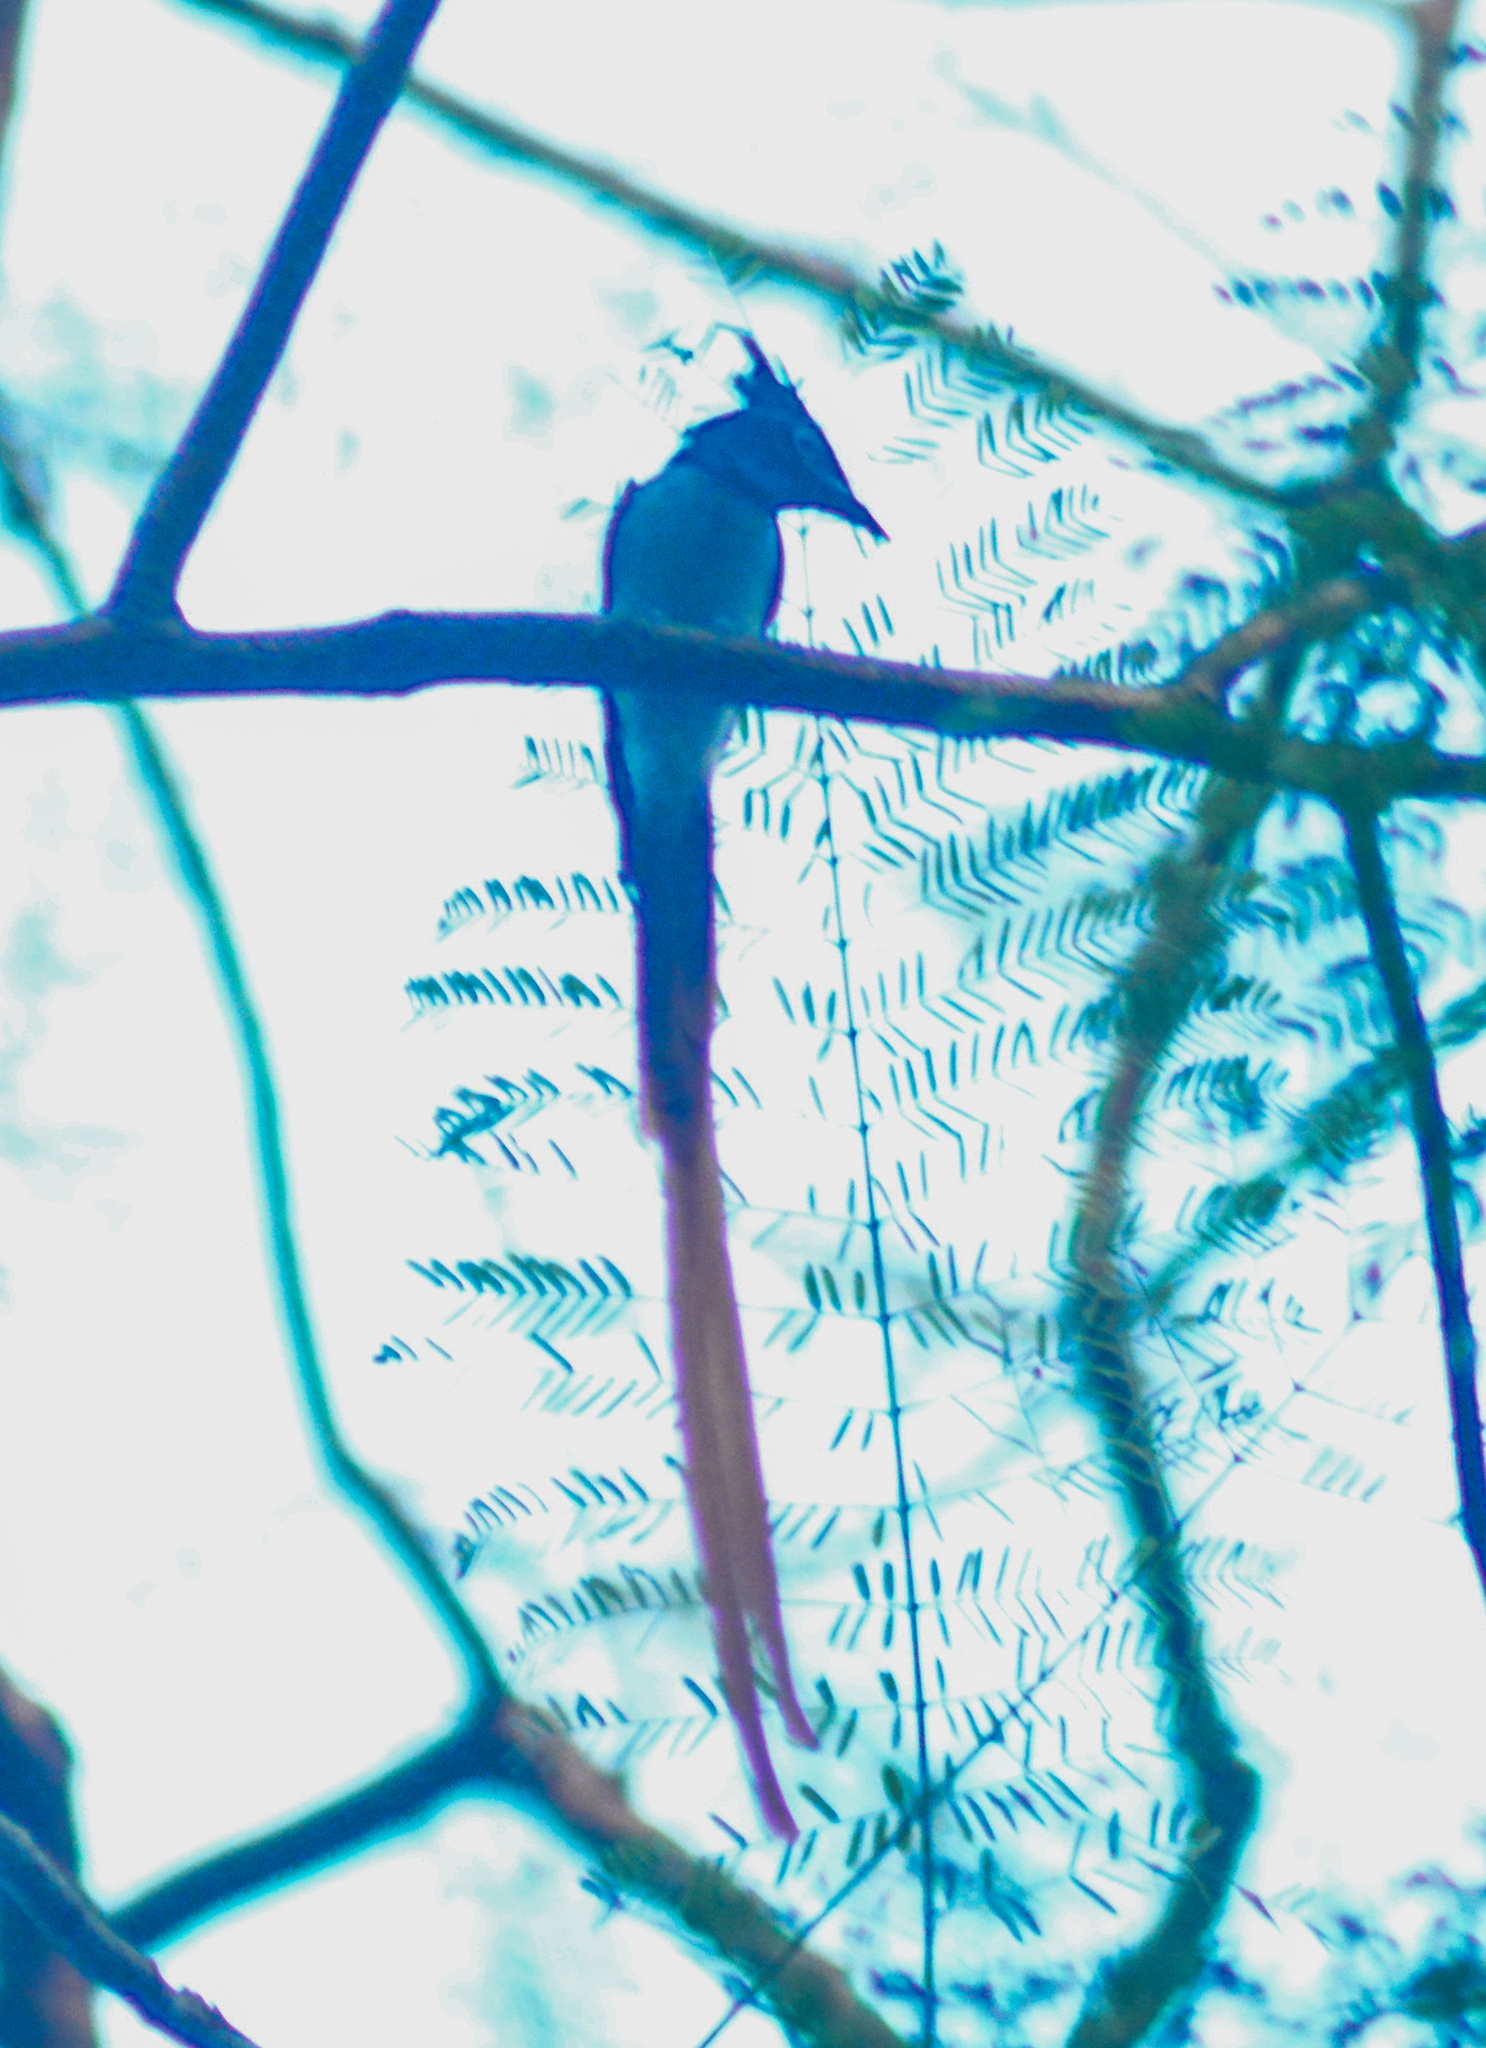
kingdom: Animalia
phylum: Chordata
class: Aves
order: Passeriformes
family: Monarchidae
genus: Terpsiphone
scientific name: Terpsiphone paradisi
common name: Indian paradise flycatcher
